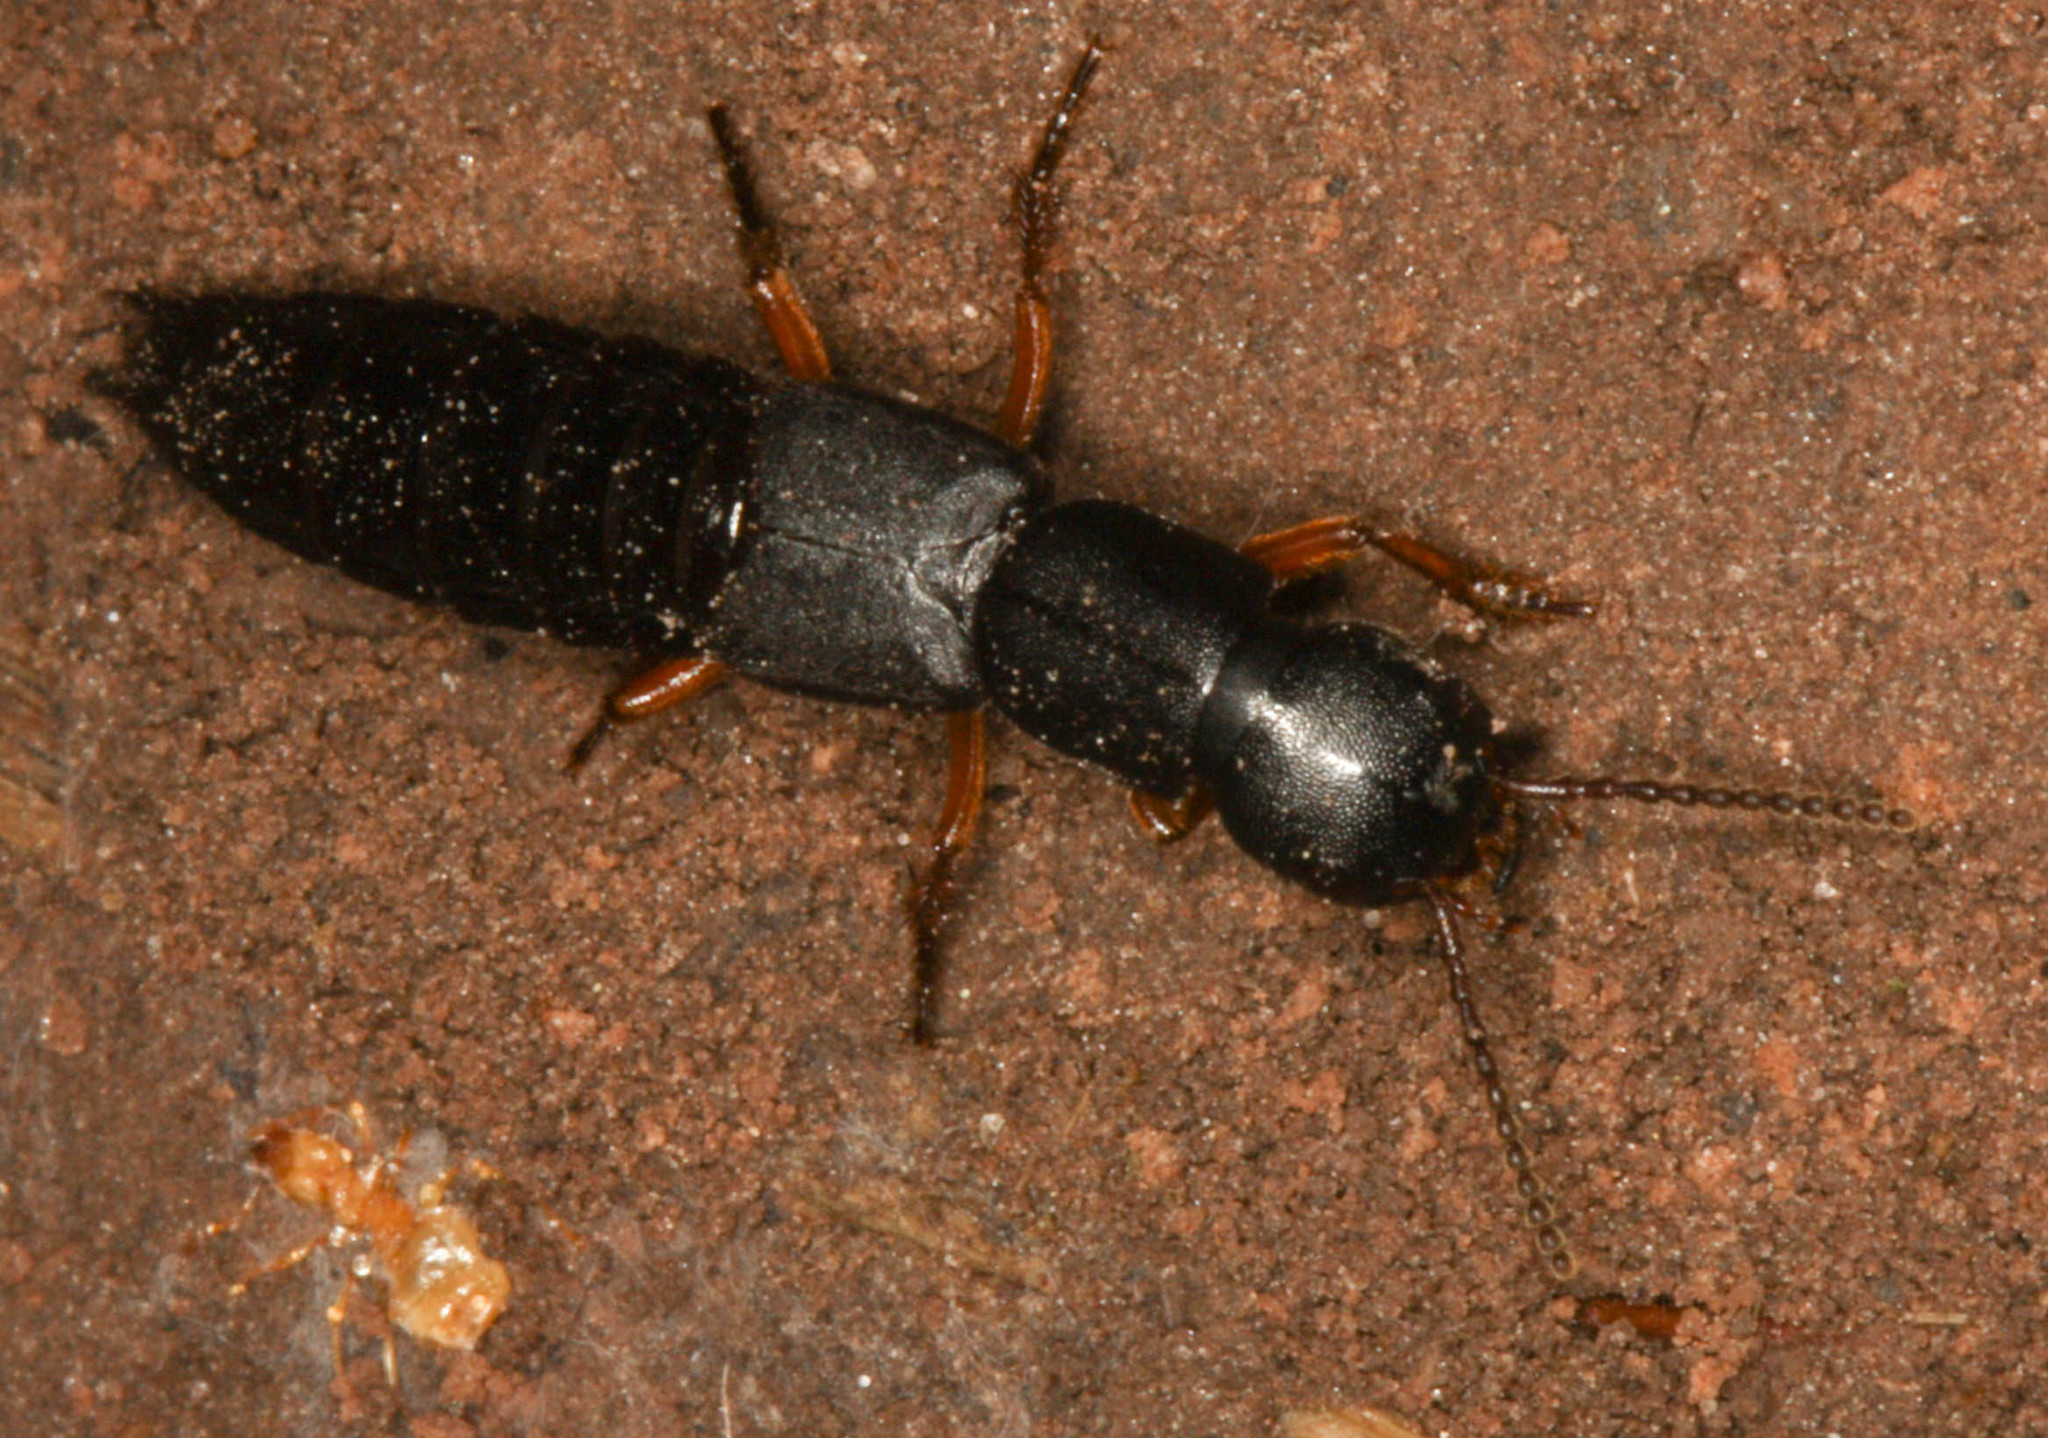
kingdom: Animalia
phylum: Arthropoda
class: Insecta
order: Coleoptera
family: Staphylinidae
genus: Dinothenarus
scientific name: Dinothenarus badipes
